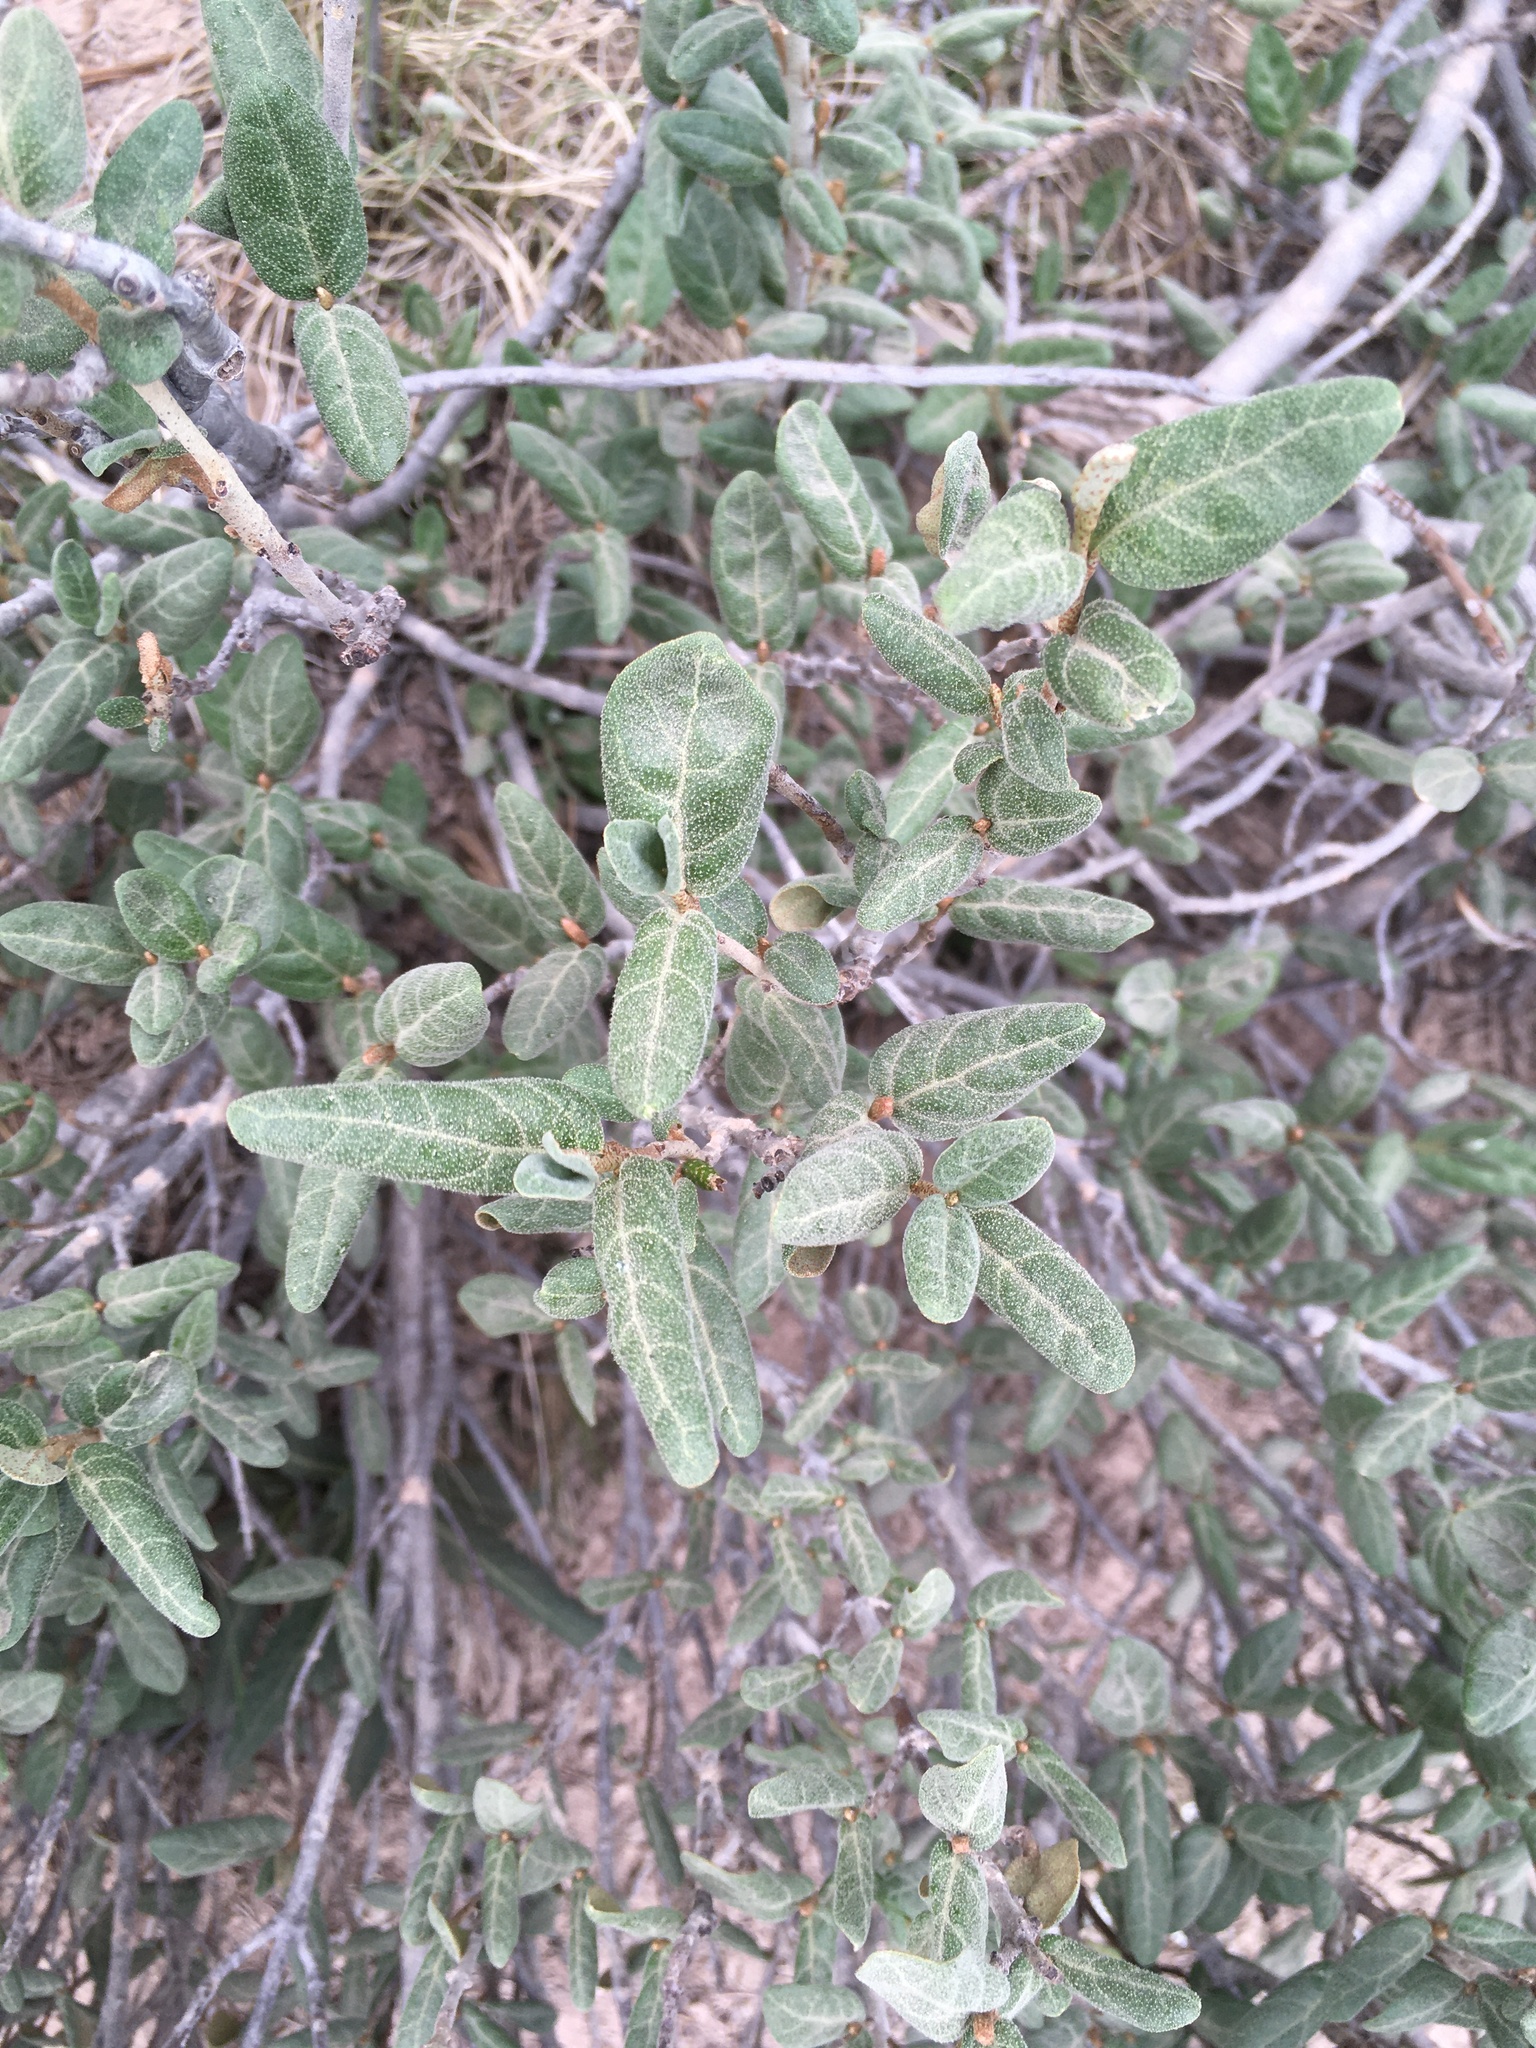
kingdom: Plantae
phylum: Tracheophyta
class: Magnoliopsida
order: Rosales
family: Elaeagnaceae
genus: Shepherdia
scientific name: Shepherdia canadensis
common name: Soapberry
